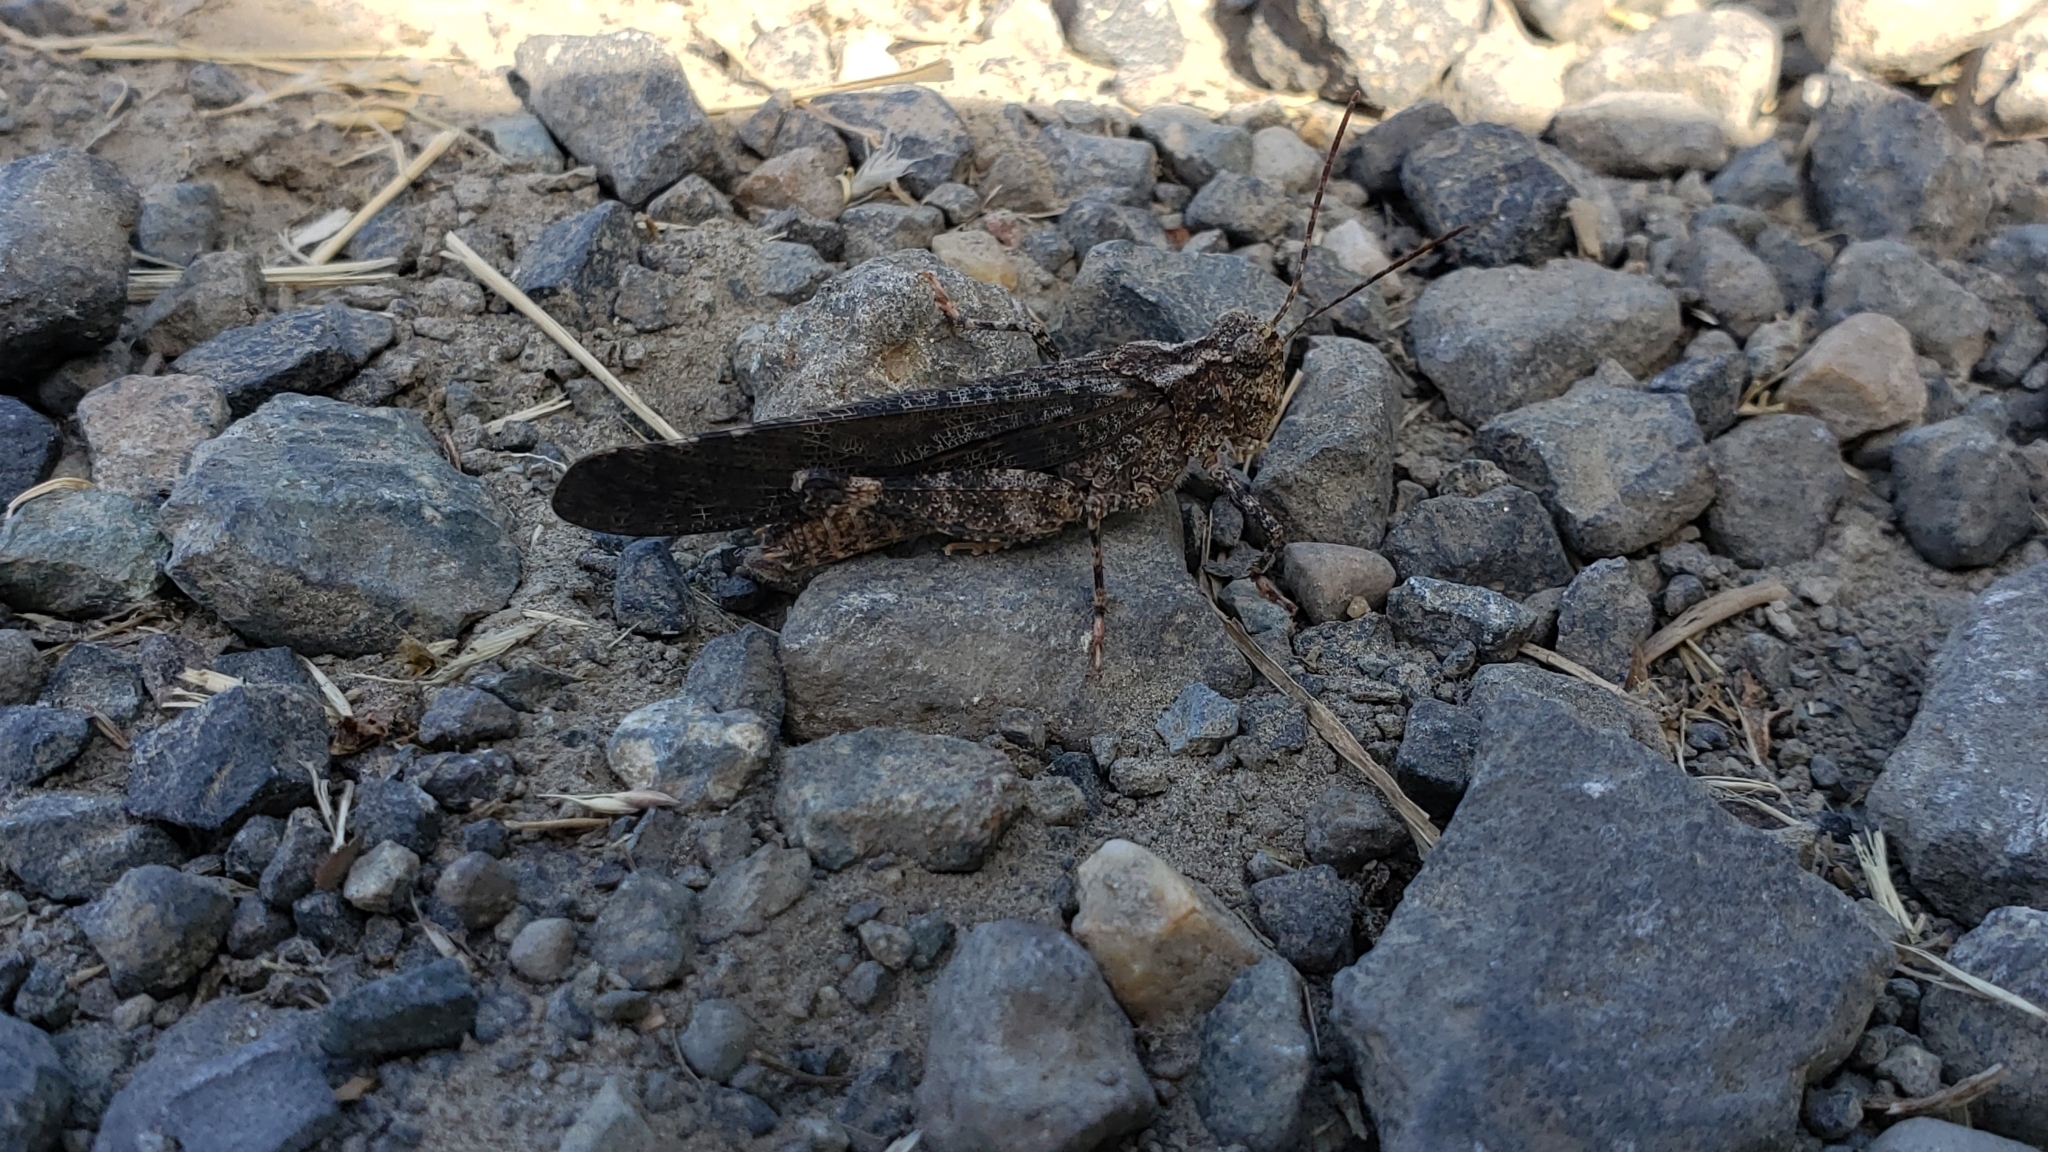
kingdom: Animalia
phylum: Arthropoda
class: Insecta
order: Orthoptera
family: Acrididae
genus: Trimerotropis
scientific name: Trimerotropis verruculata
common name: Crackling forest grasshopper
